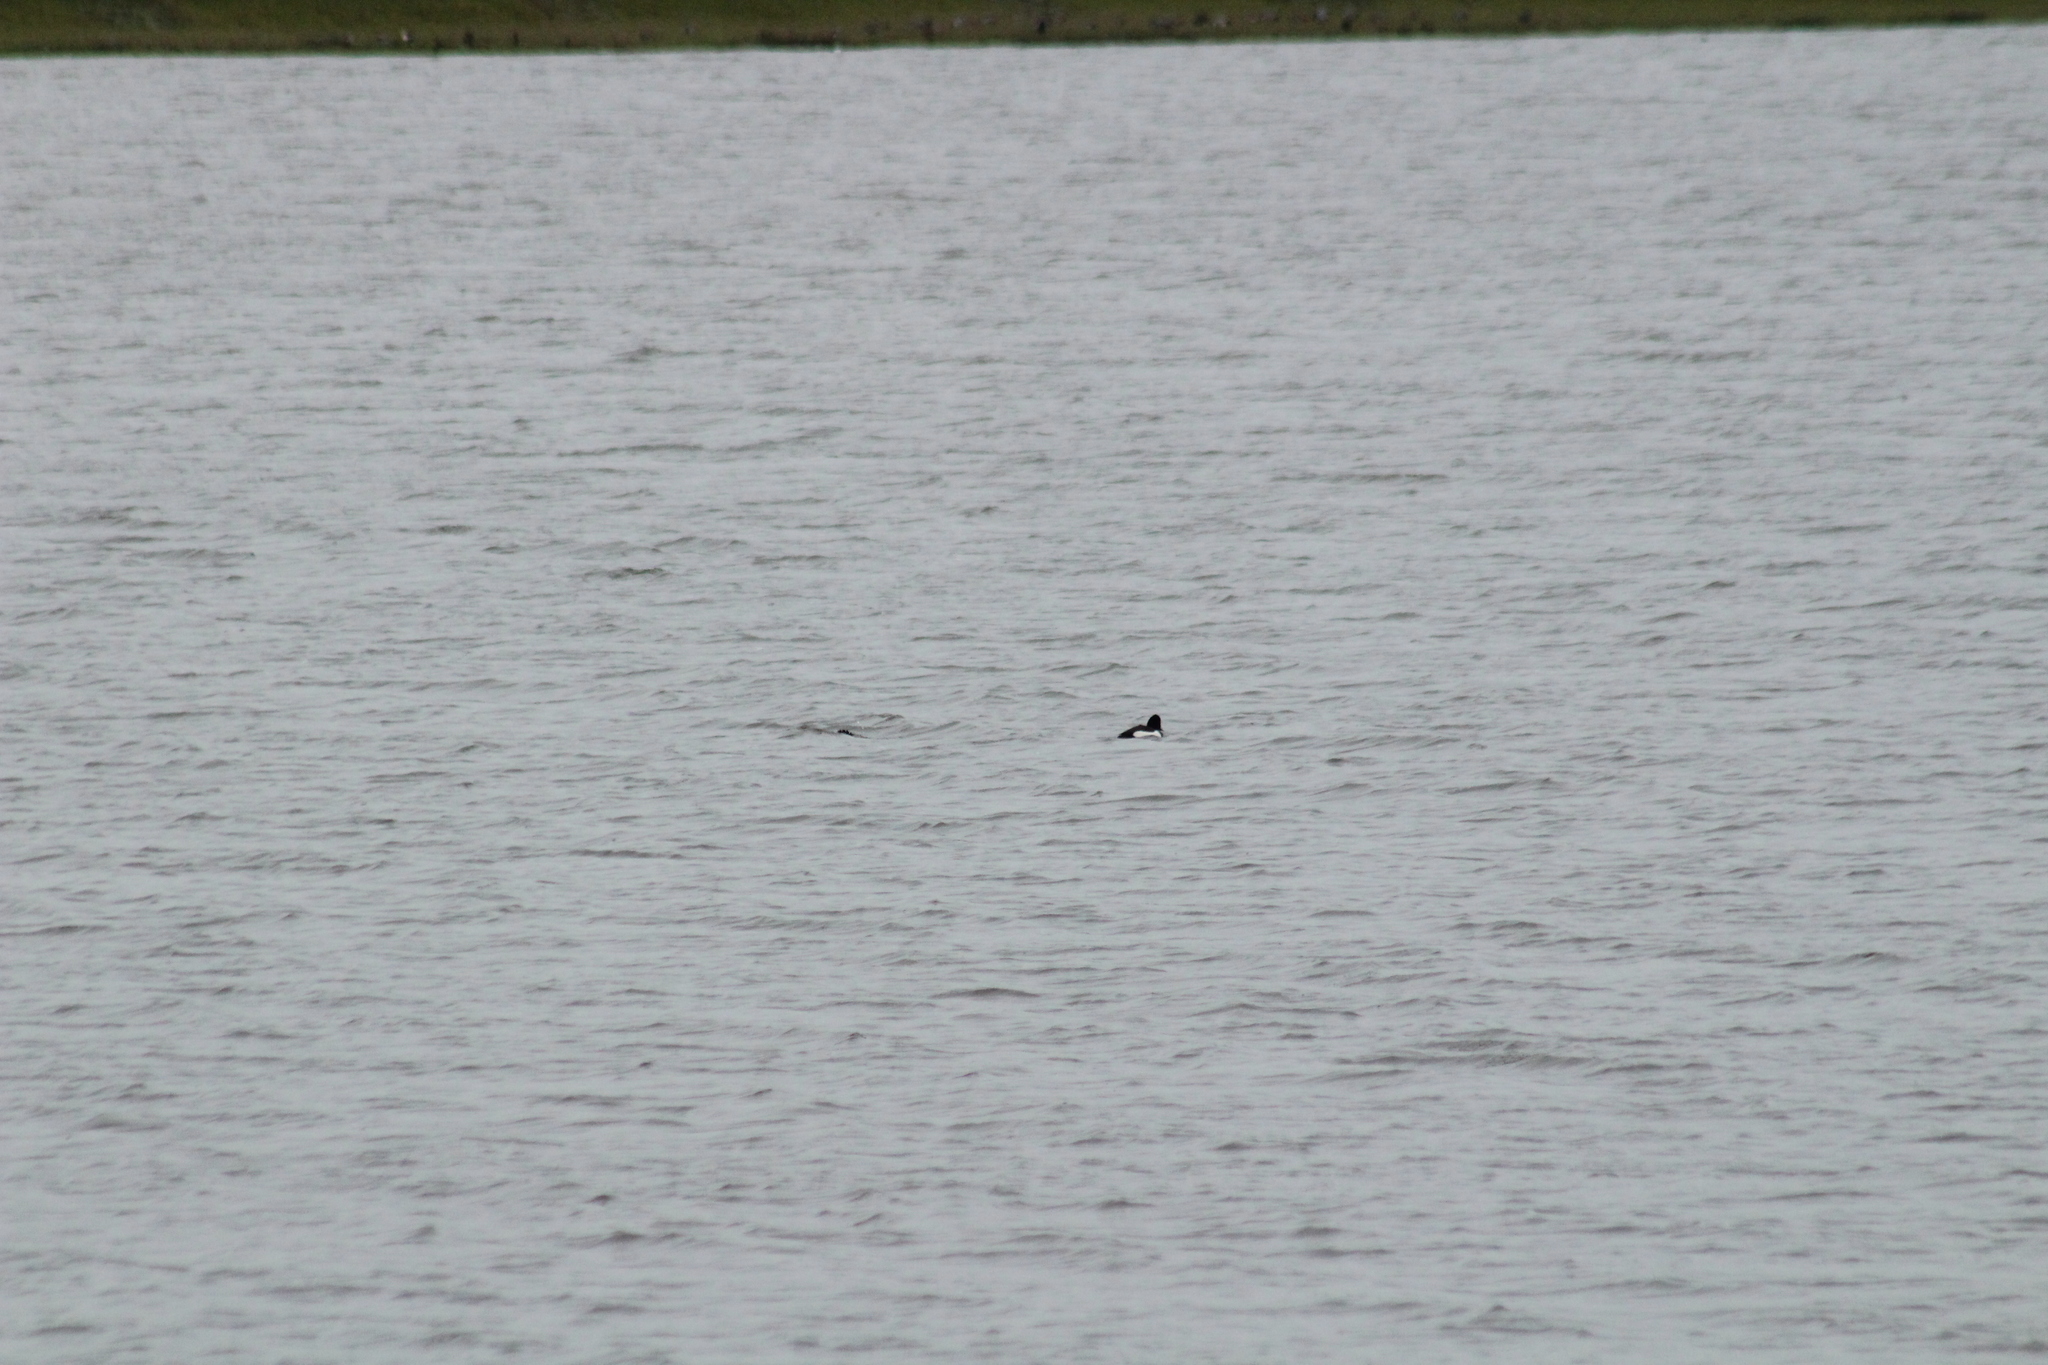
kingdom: Animalia
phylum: Chordata
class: Aves
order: Anseriformes
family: Anatidae
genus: Aythya
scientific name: Aythya fuligula
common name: Tufted duck
